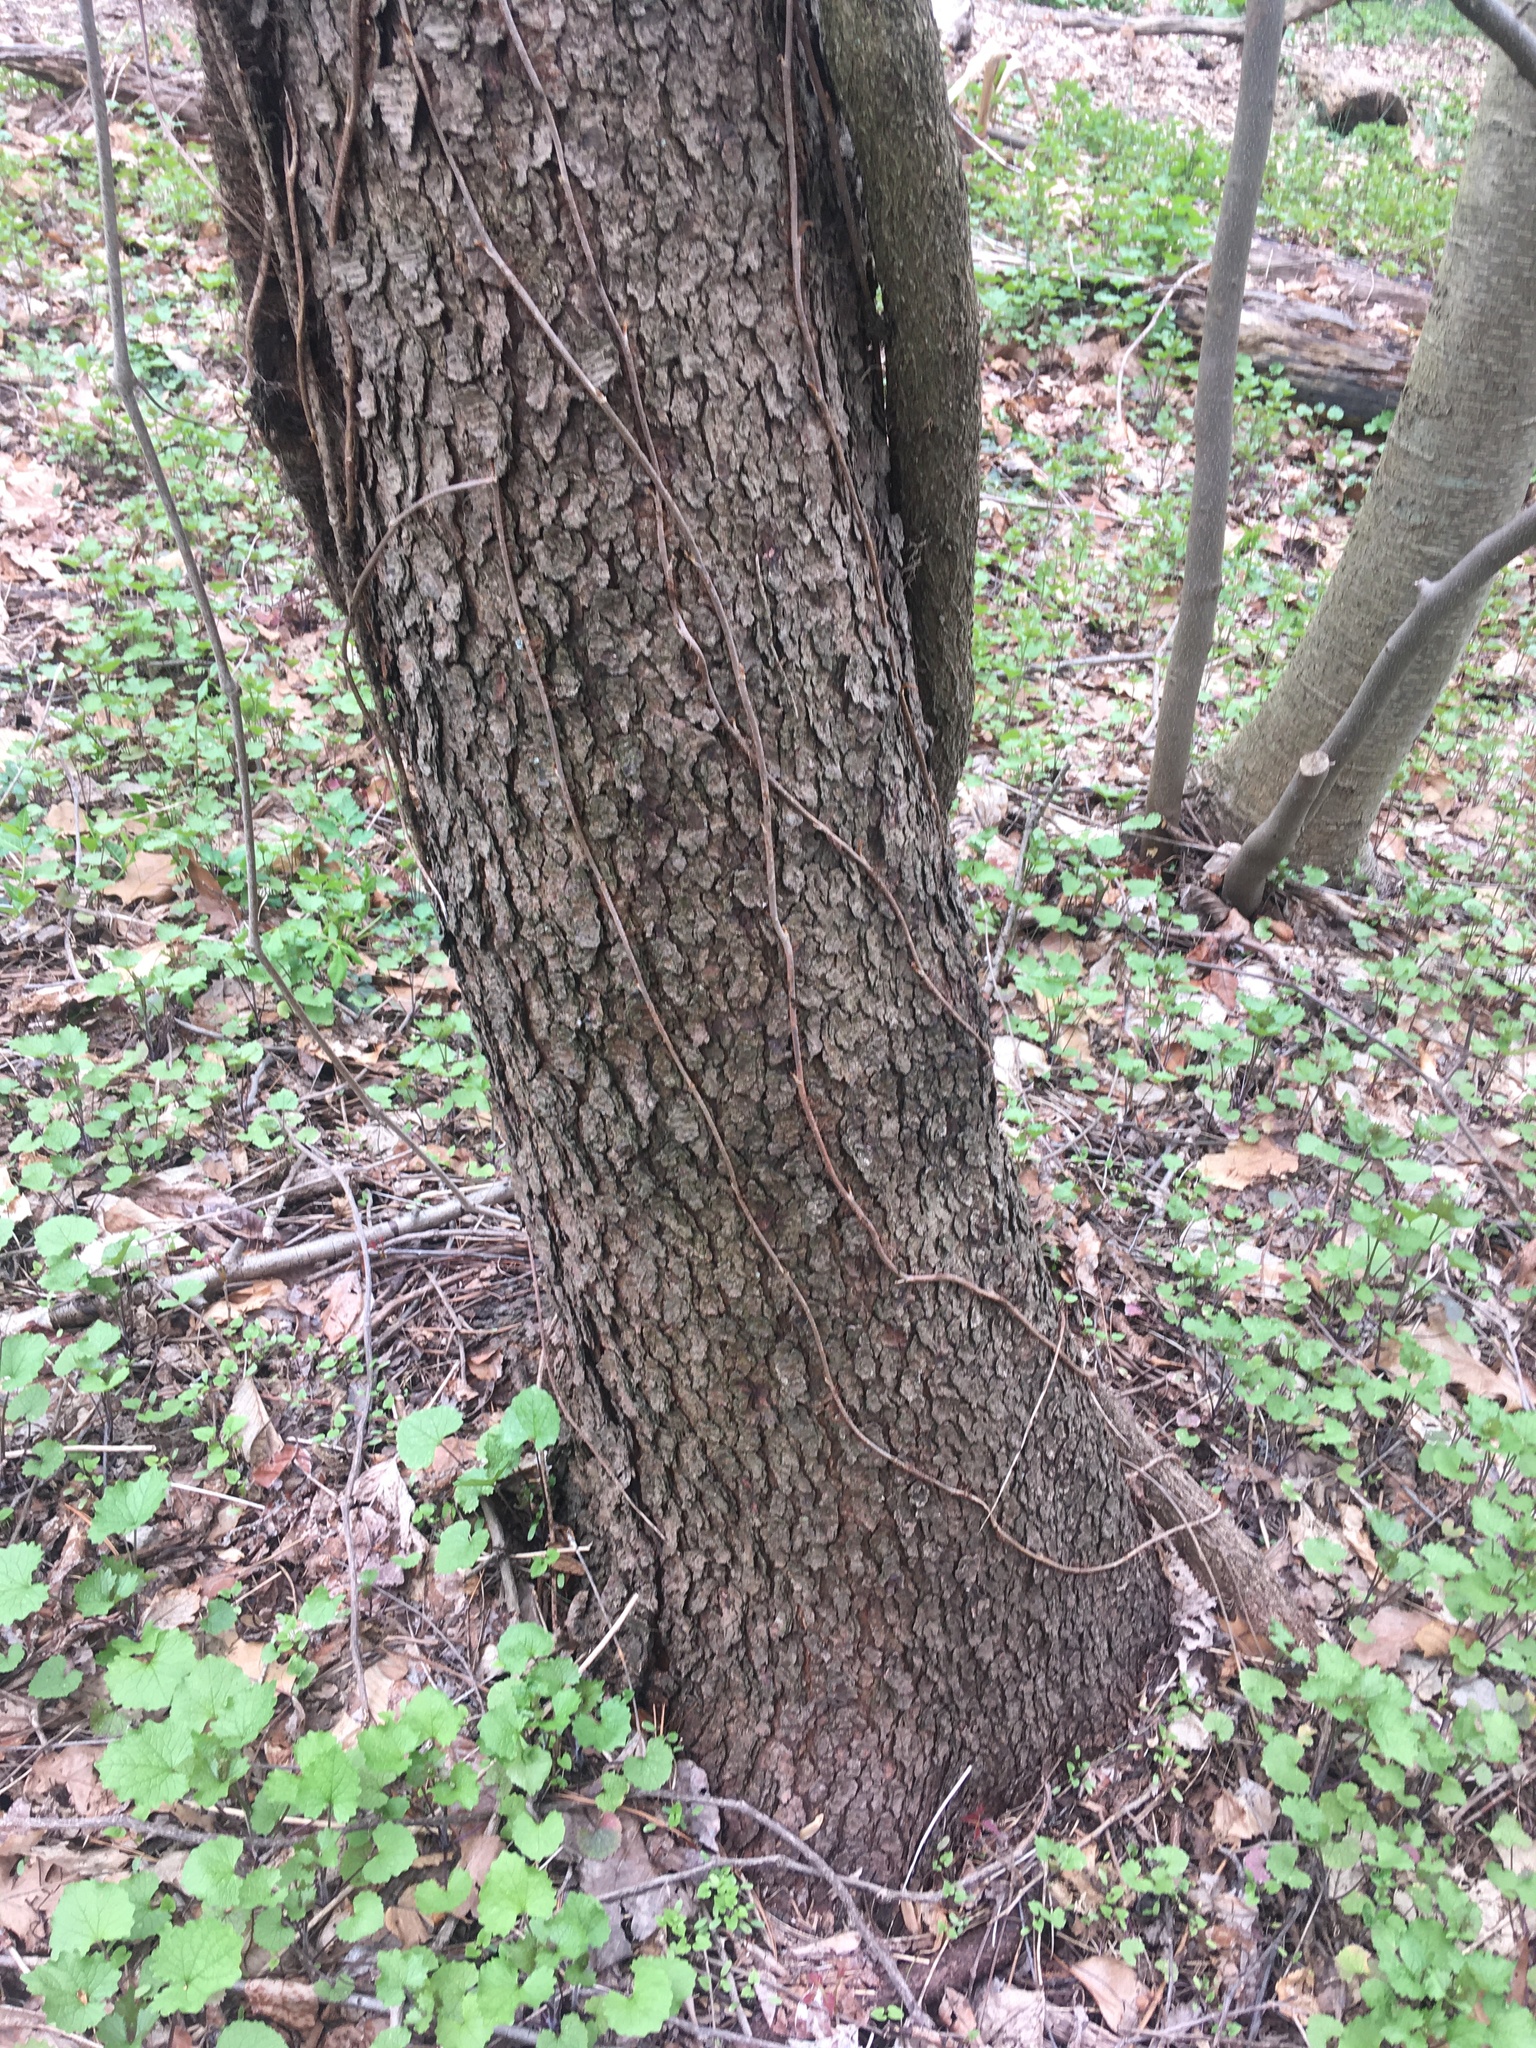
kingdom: Plantae
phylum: Tracheophyta
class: Magnoliopsida
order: Rosales
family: Rosaceae
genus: Prunus
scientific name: Prunus serotina
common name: Black cherry
